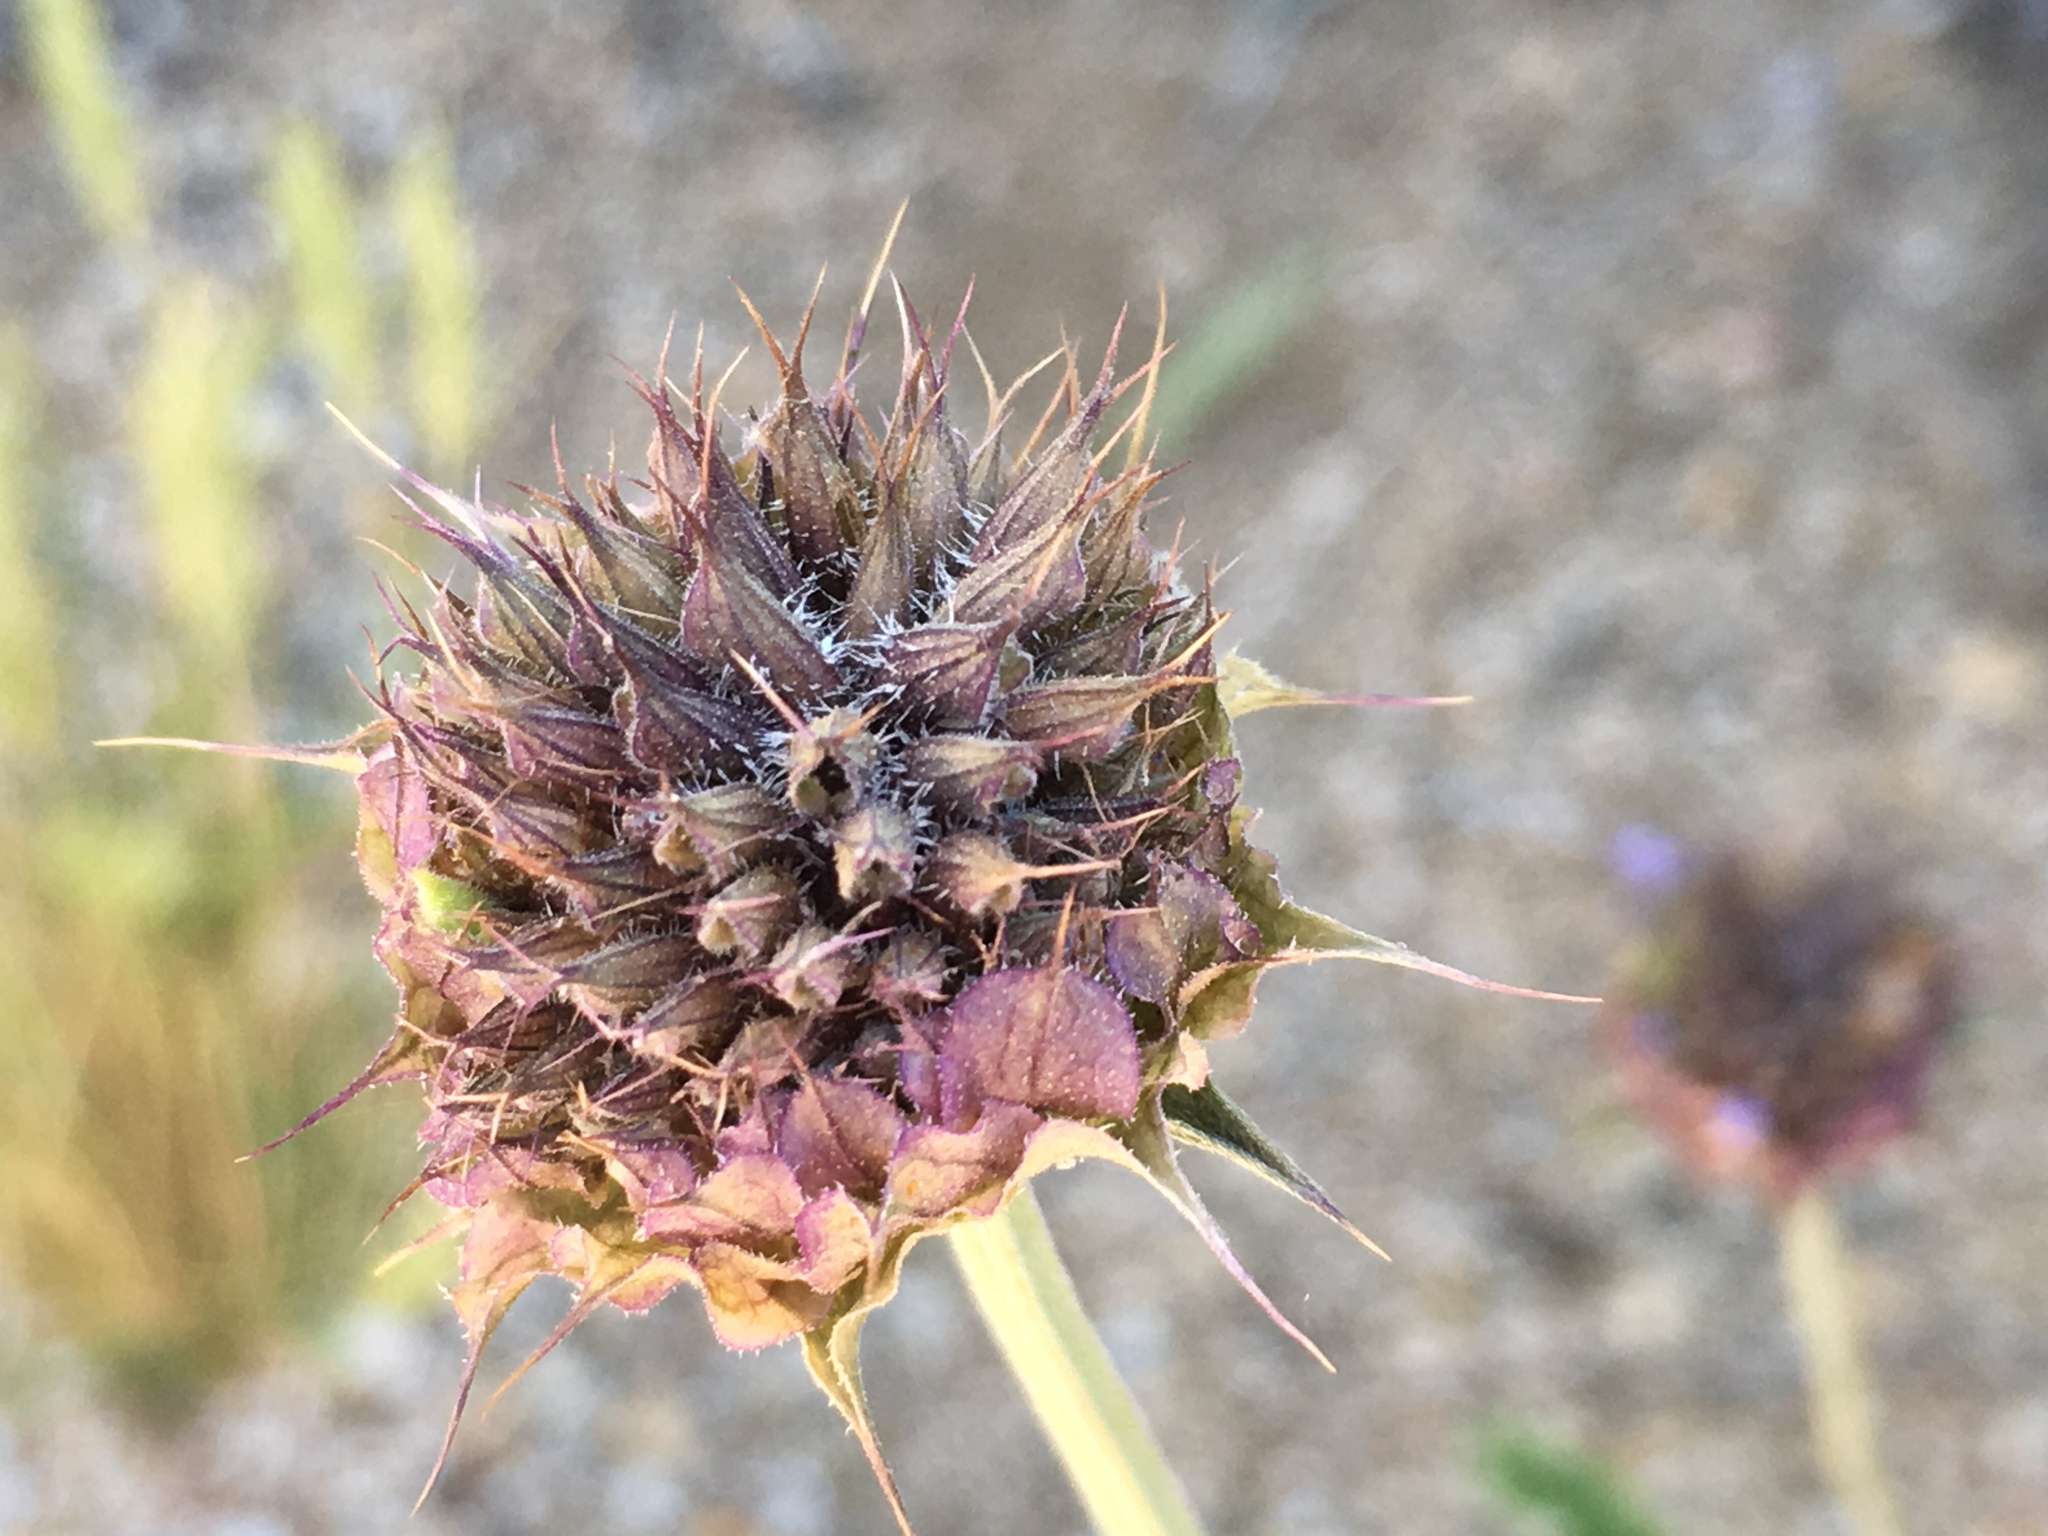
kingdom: Plantae
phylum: Tracheophyta
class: Magnoliopsida
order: Lamiales
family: Lamiaceae
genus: Salvia
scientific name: Salvia columbariae
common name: Chia
